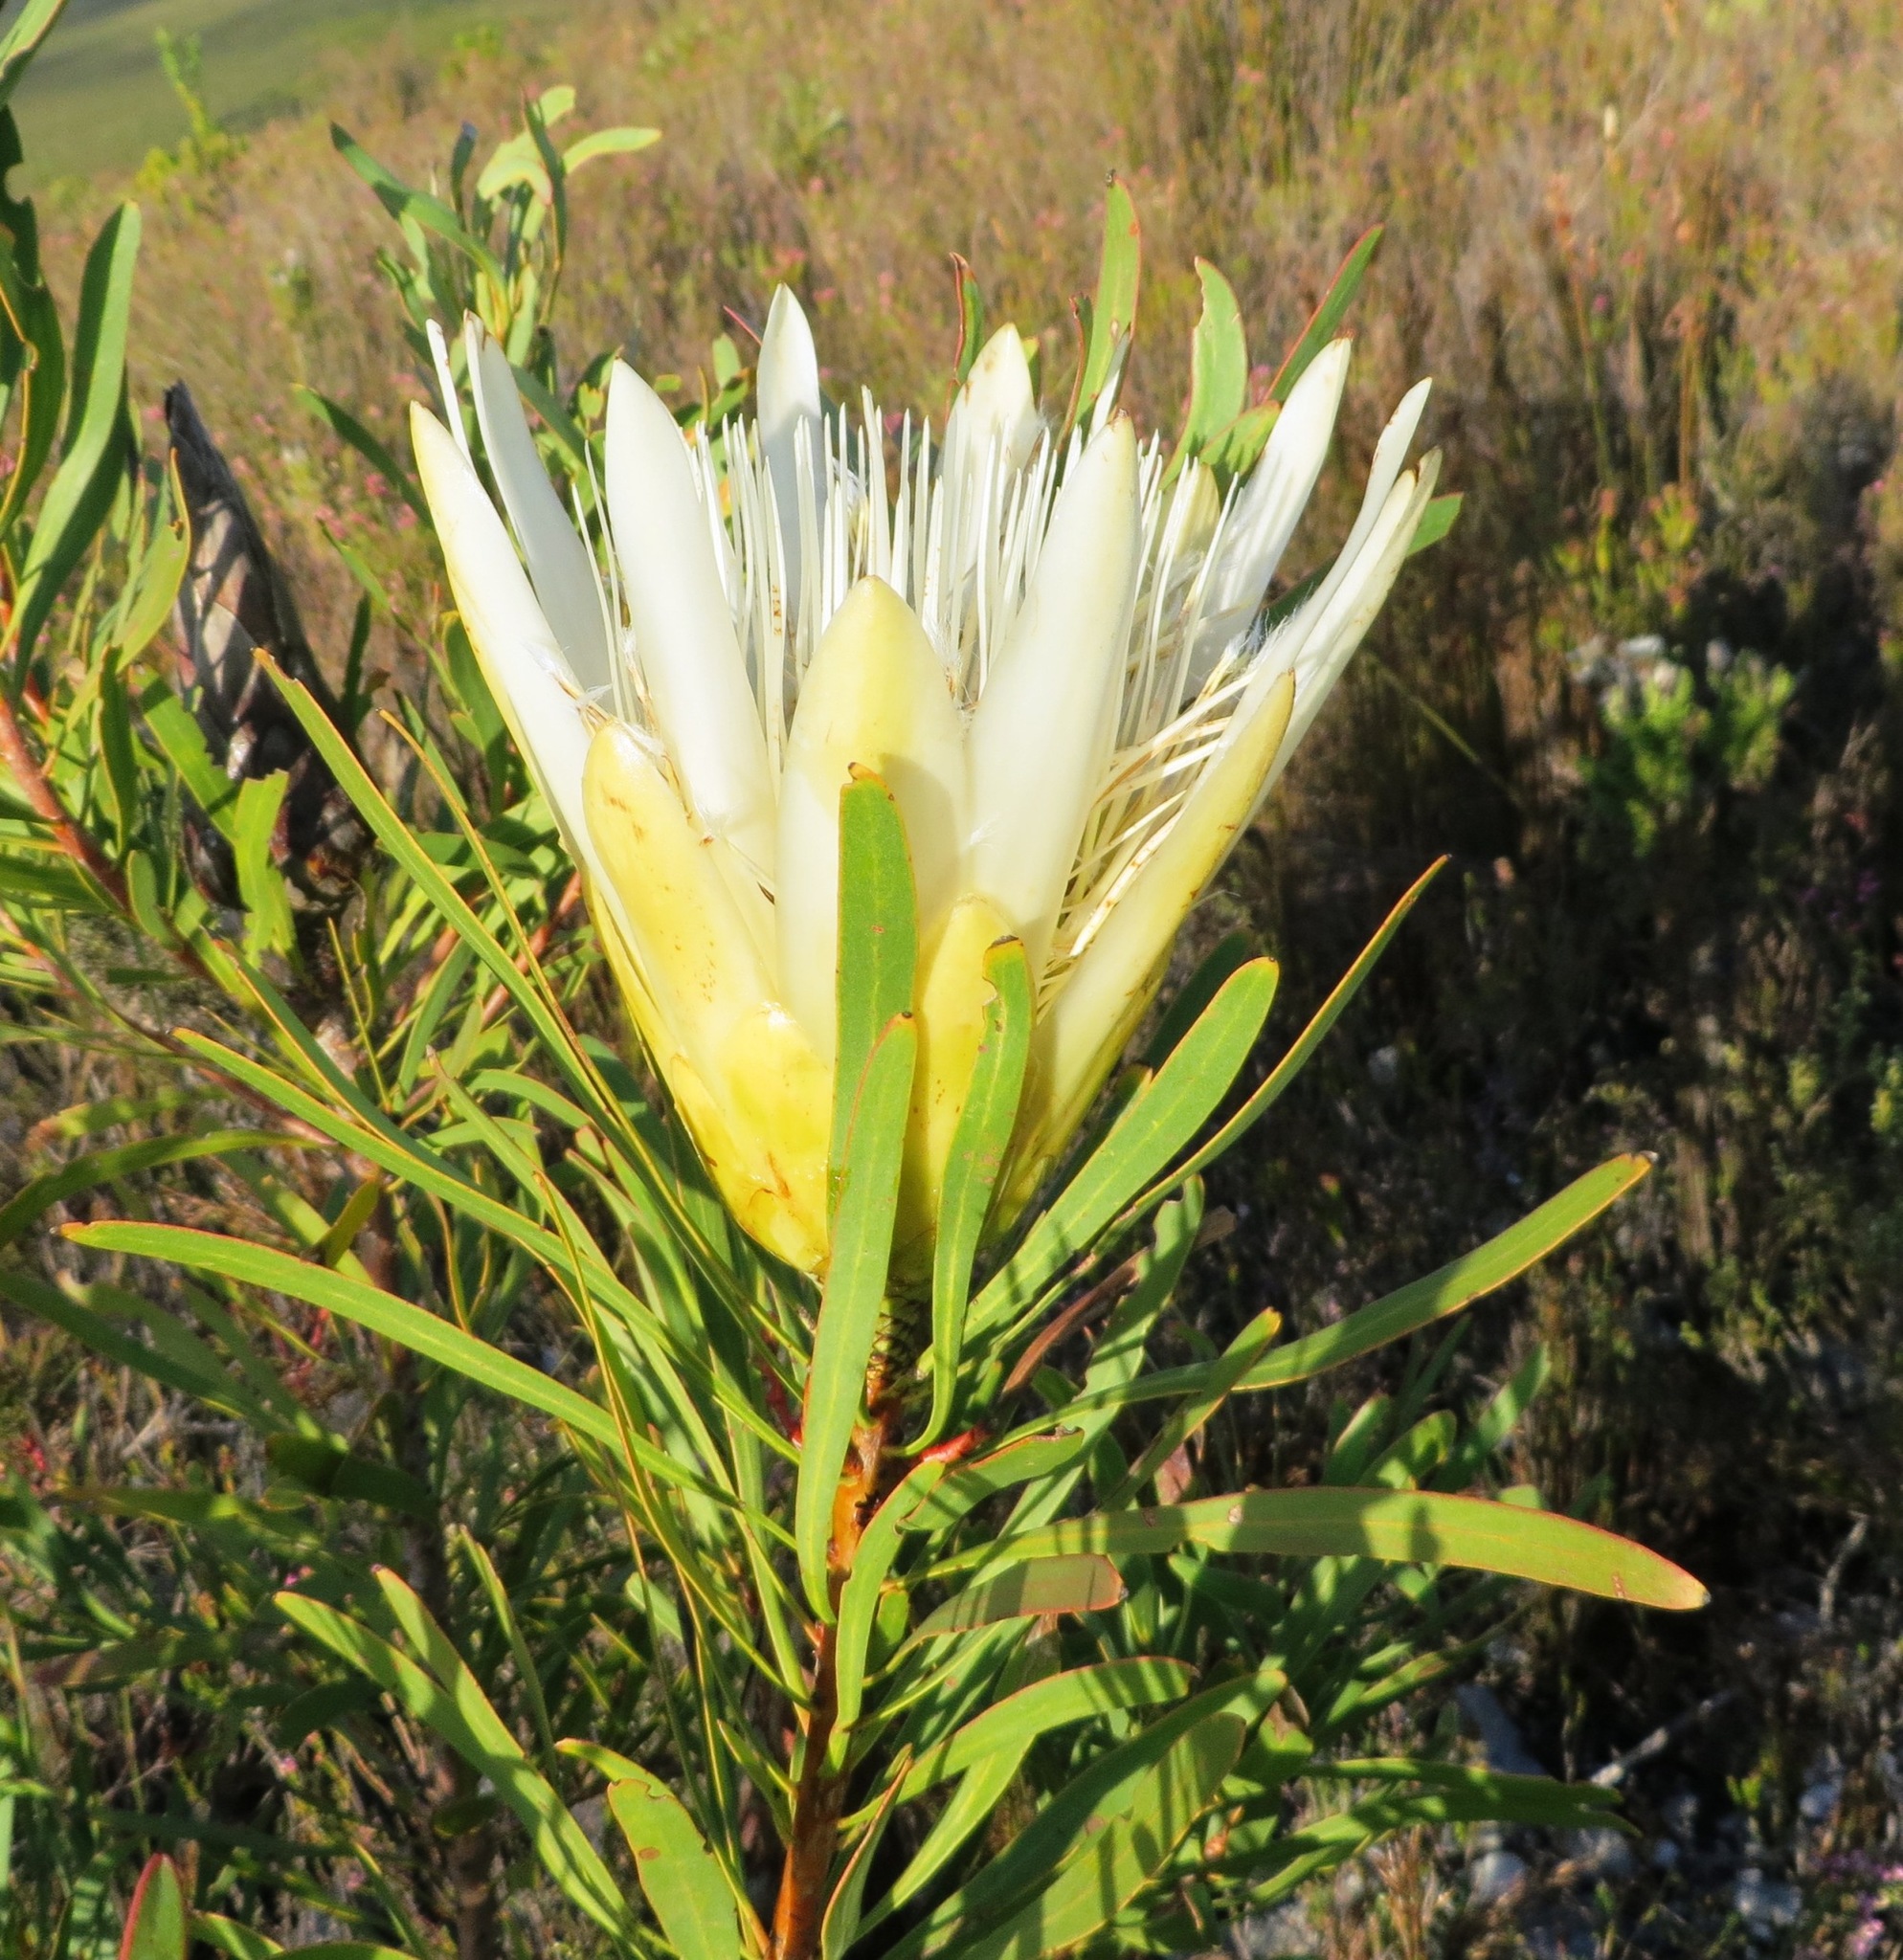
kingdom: Plantae
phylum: Tracheophyta
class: Magnoliopsida
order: Proteales
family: Proteaceae
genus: Protea
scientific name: Protea repens
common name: Sugarbush
